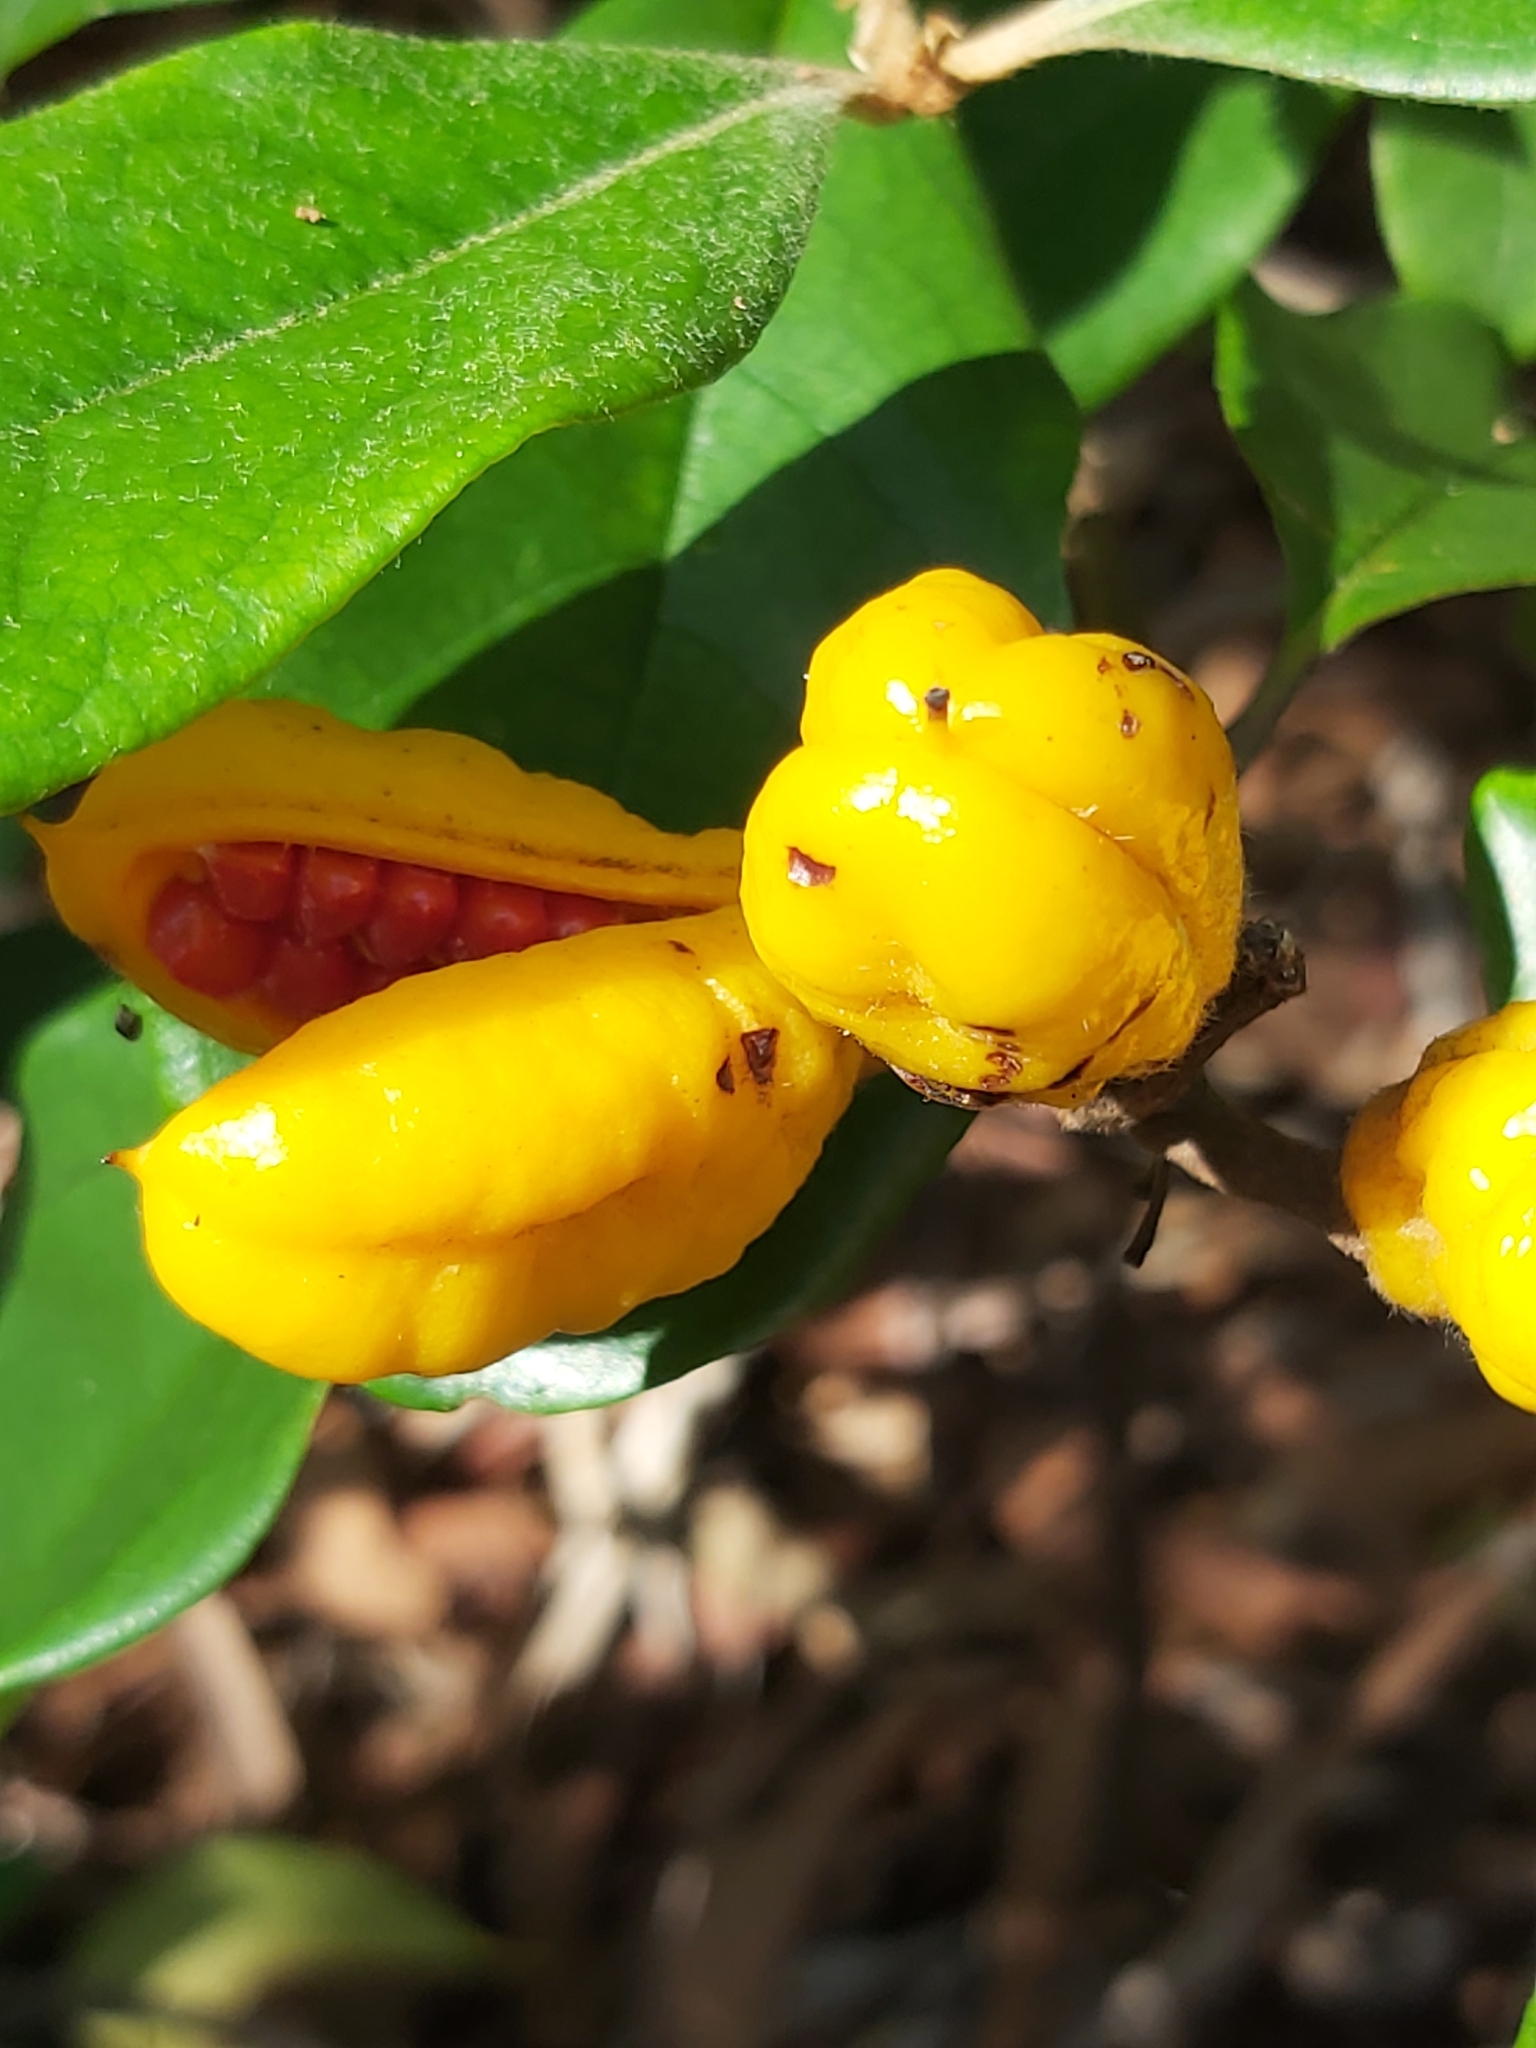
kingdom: Plantae
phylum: Tracheophyta
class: Magnoliopsida
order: Apiales
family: Pittosporaceae
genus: Pittosporum
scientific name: Pittosporum revolutum
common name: Brisbane-laurel
